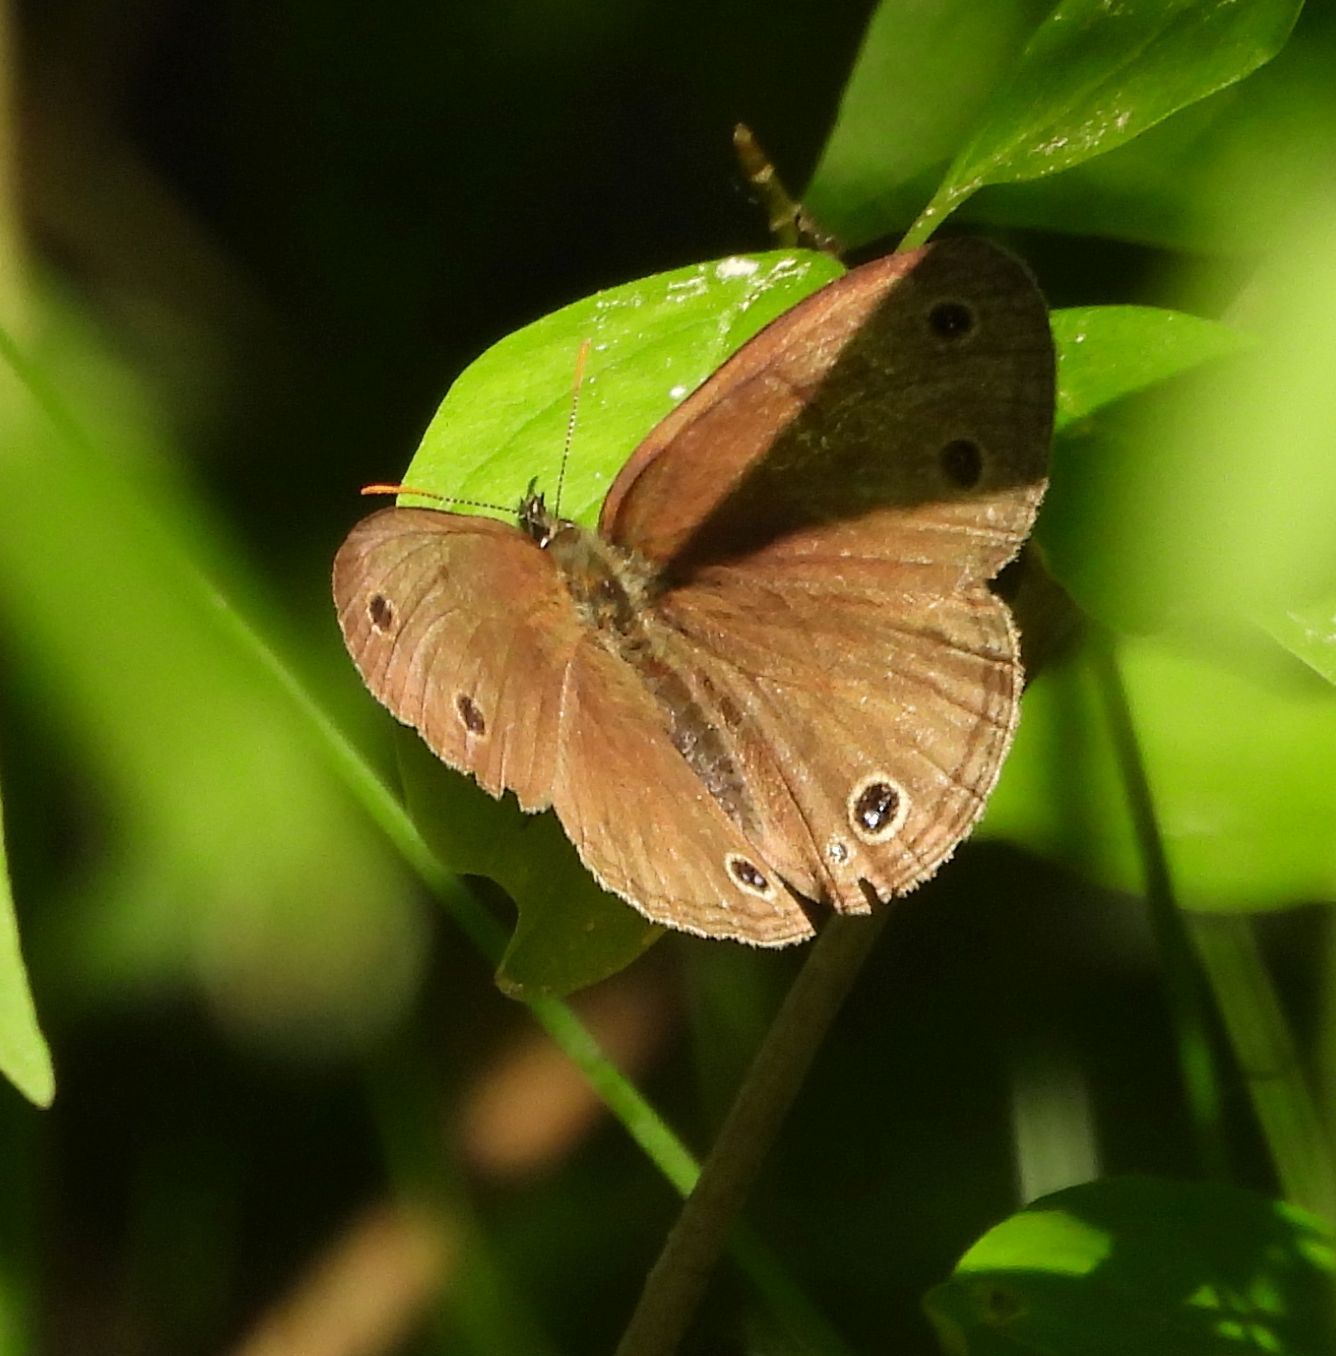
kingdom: Animalia
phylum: Arthropoda
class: Insecta
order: Lepidoptera
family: Nymphalidae
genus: Euptychia
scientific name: Euptychia cymela
